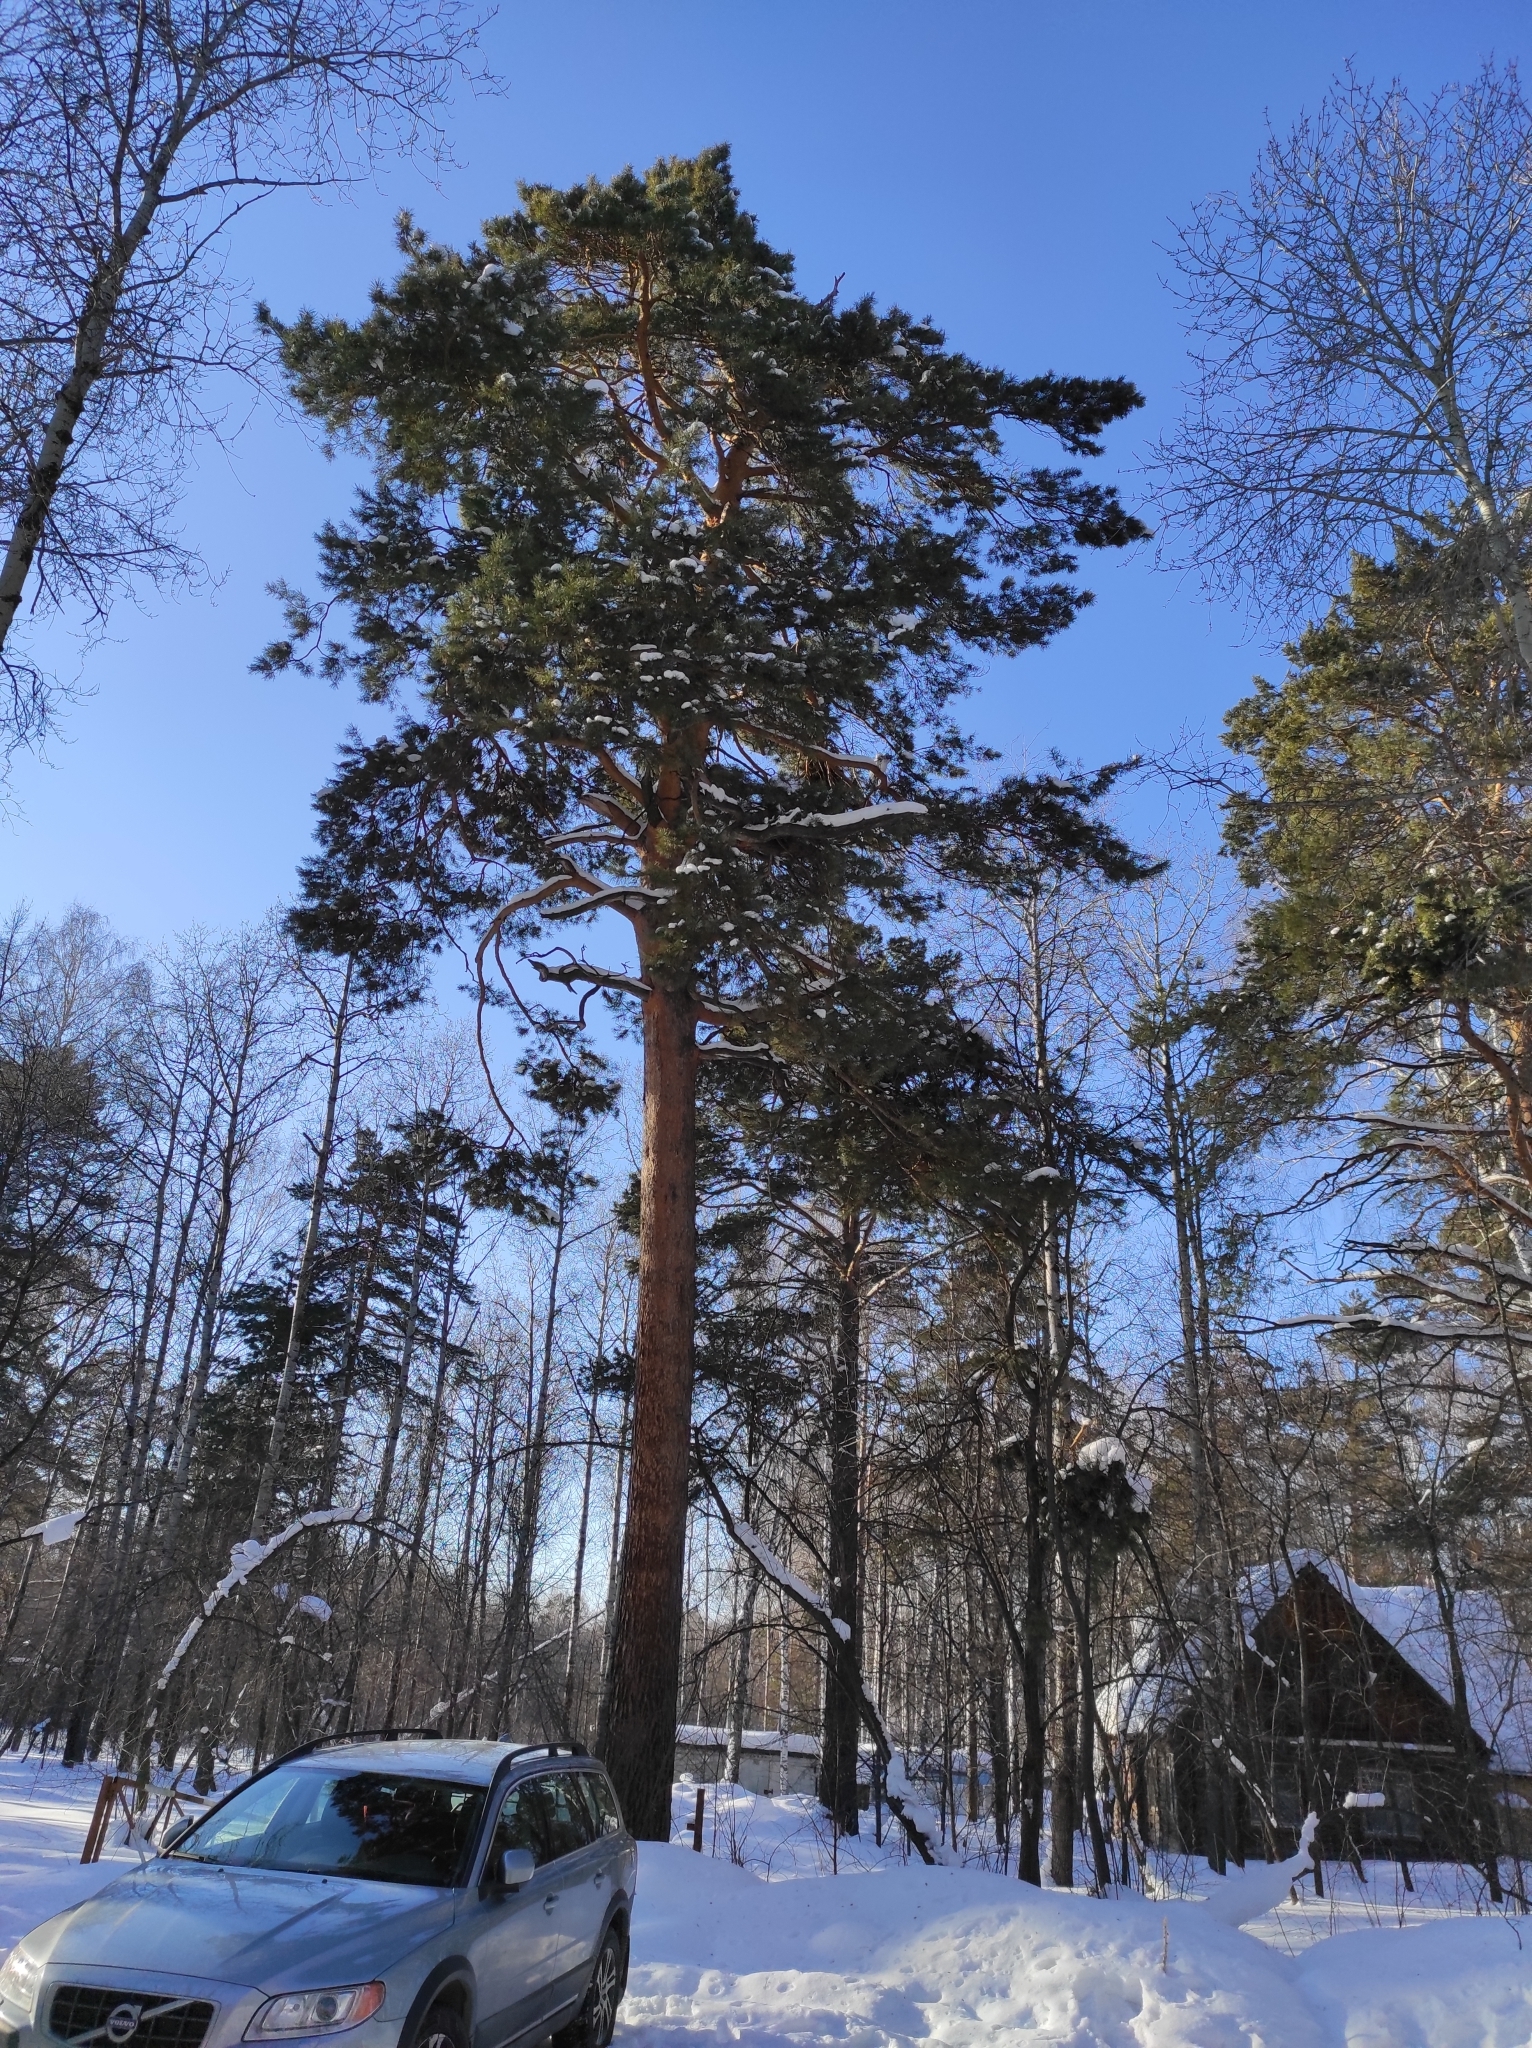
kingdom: Plantae
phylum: Tracheophyta
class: Pinopsida
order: Pinales
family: Pinaceae
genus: Pinus
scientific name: Pinus sylvestris
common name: Scots pine
